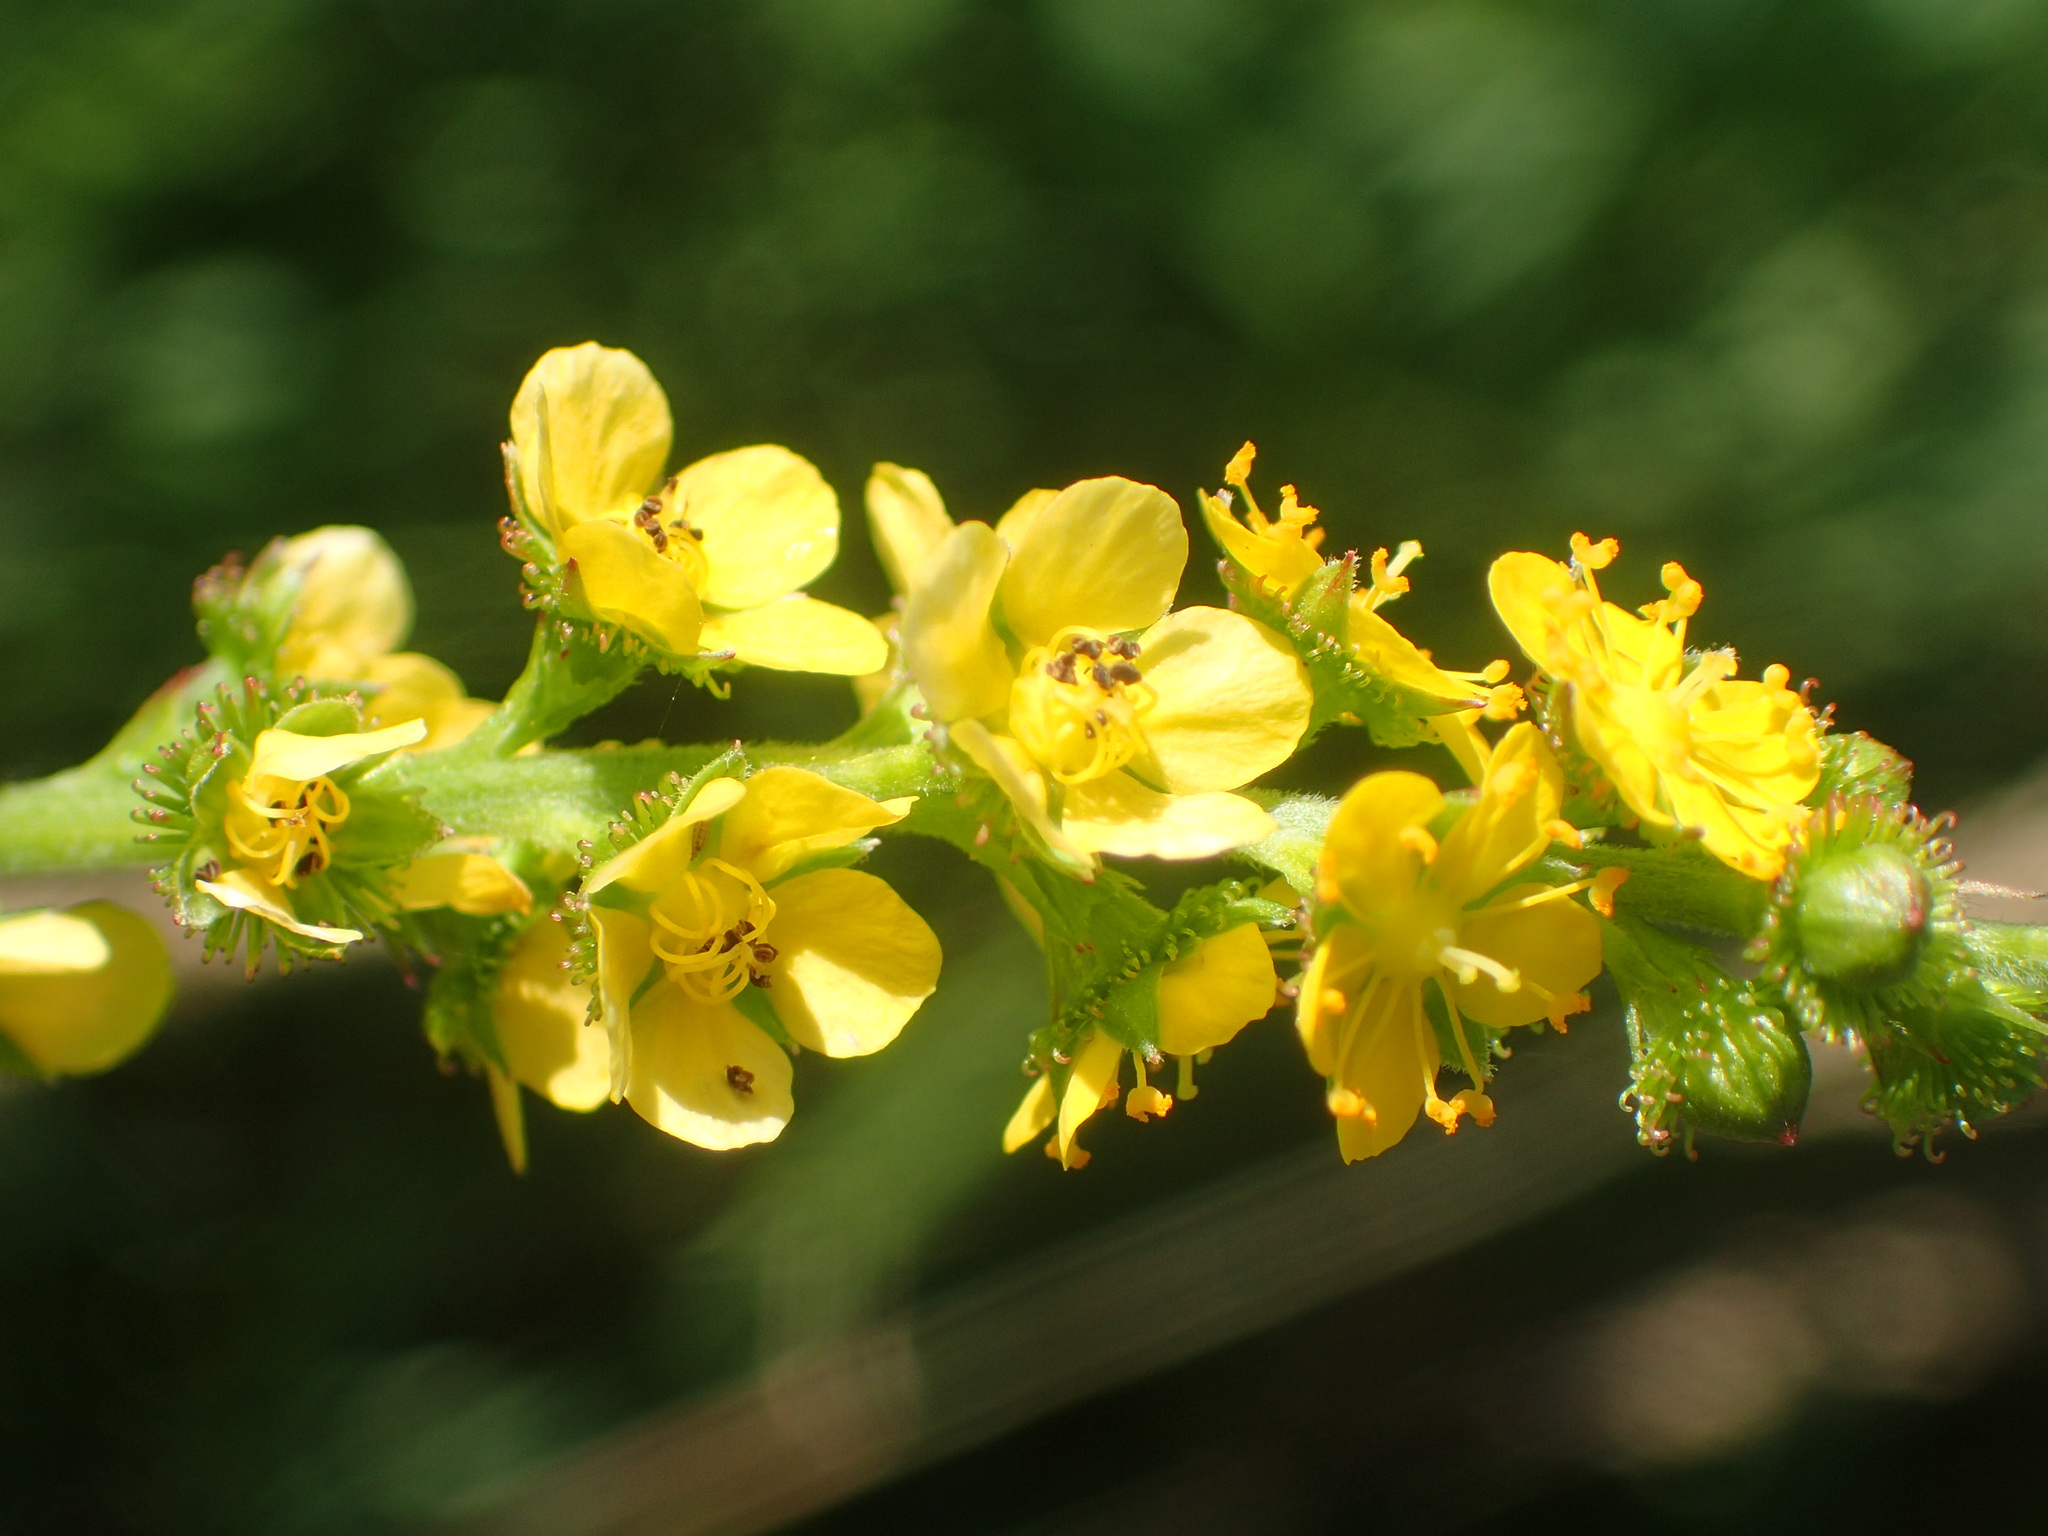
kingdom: Plantae
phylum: Tracheophyta
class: Magnoliopsida
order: Rosales
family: Rosaceae
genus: Agrimonia
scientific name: Agrimonia striata
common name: Britton's agrimony
